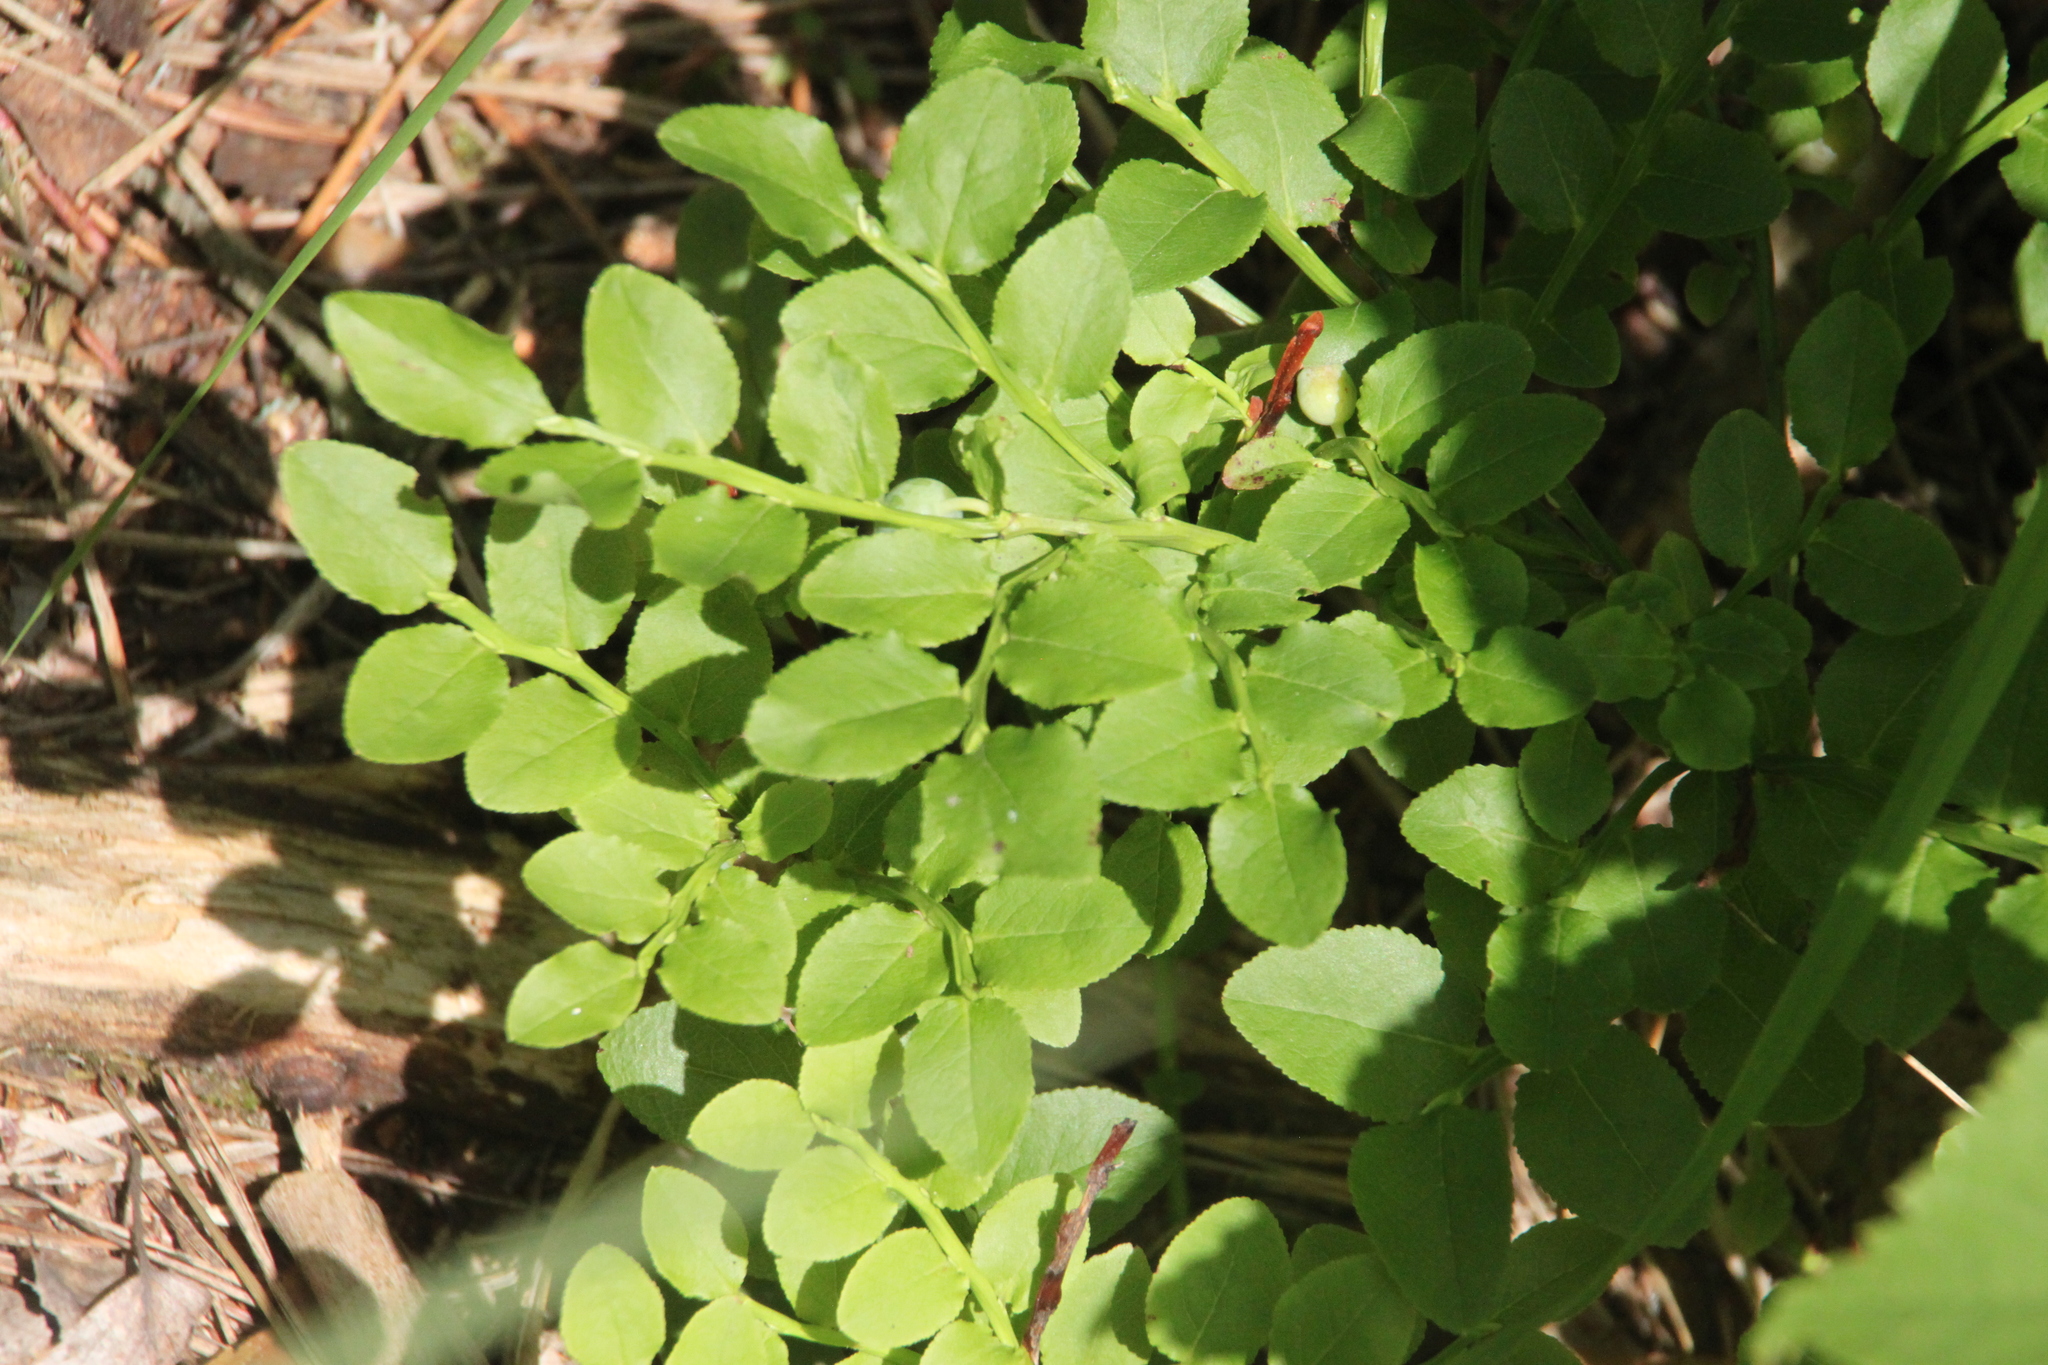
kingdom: Plantae
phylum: Tracheophyta
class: Magnoliopsida
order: Ericales
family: Ericaceae
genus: Vaccinium
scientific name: Vaccinium myrtillus
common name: Bilberry
